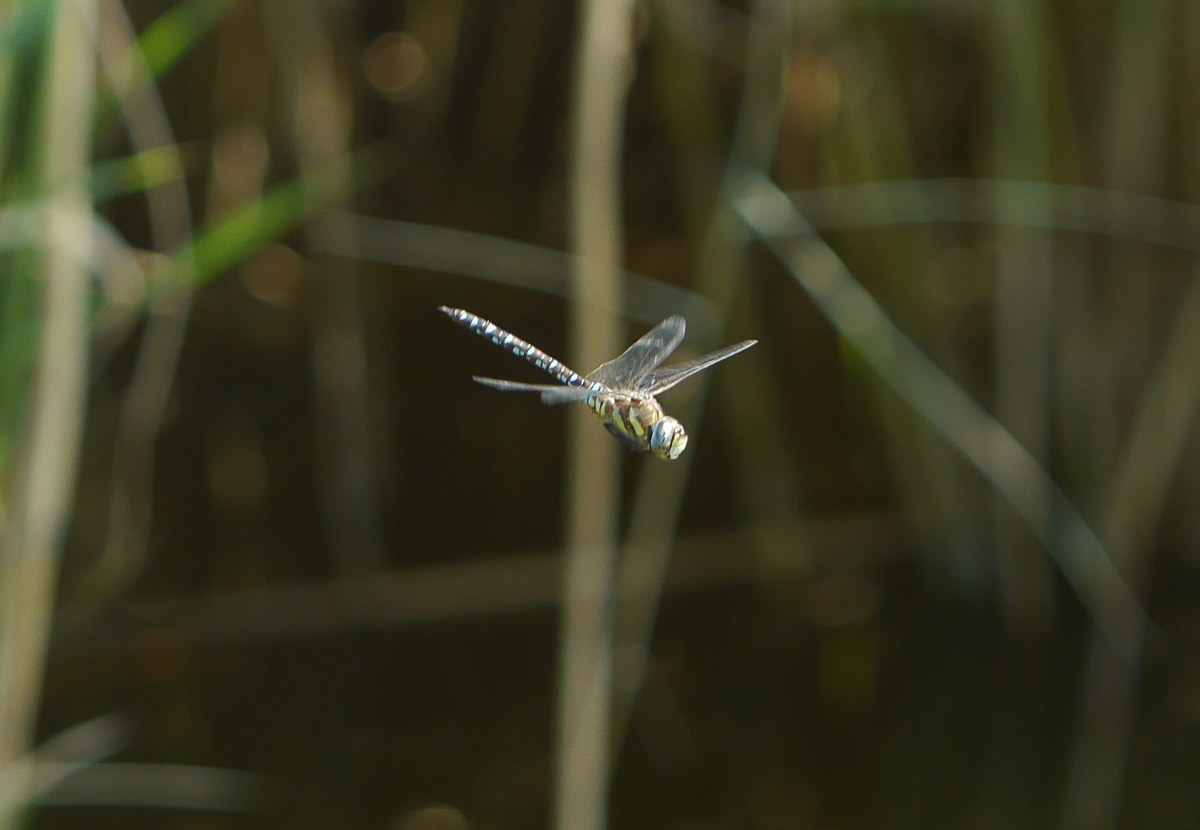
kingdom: Animalia
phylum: Arthropoda
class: Insecta
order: Odonata
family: Aeshnidae
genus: Aeshna
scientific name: Aeshna mixta
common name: Migrant hawker
